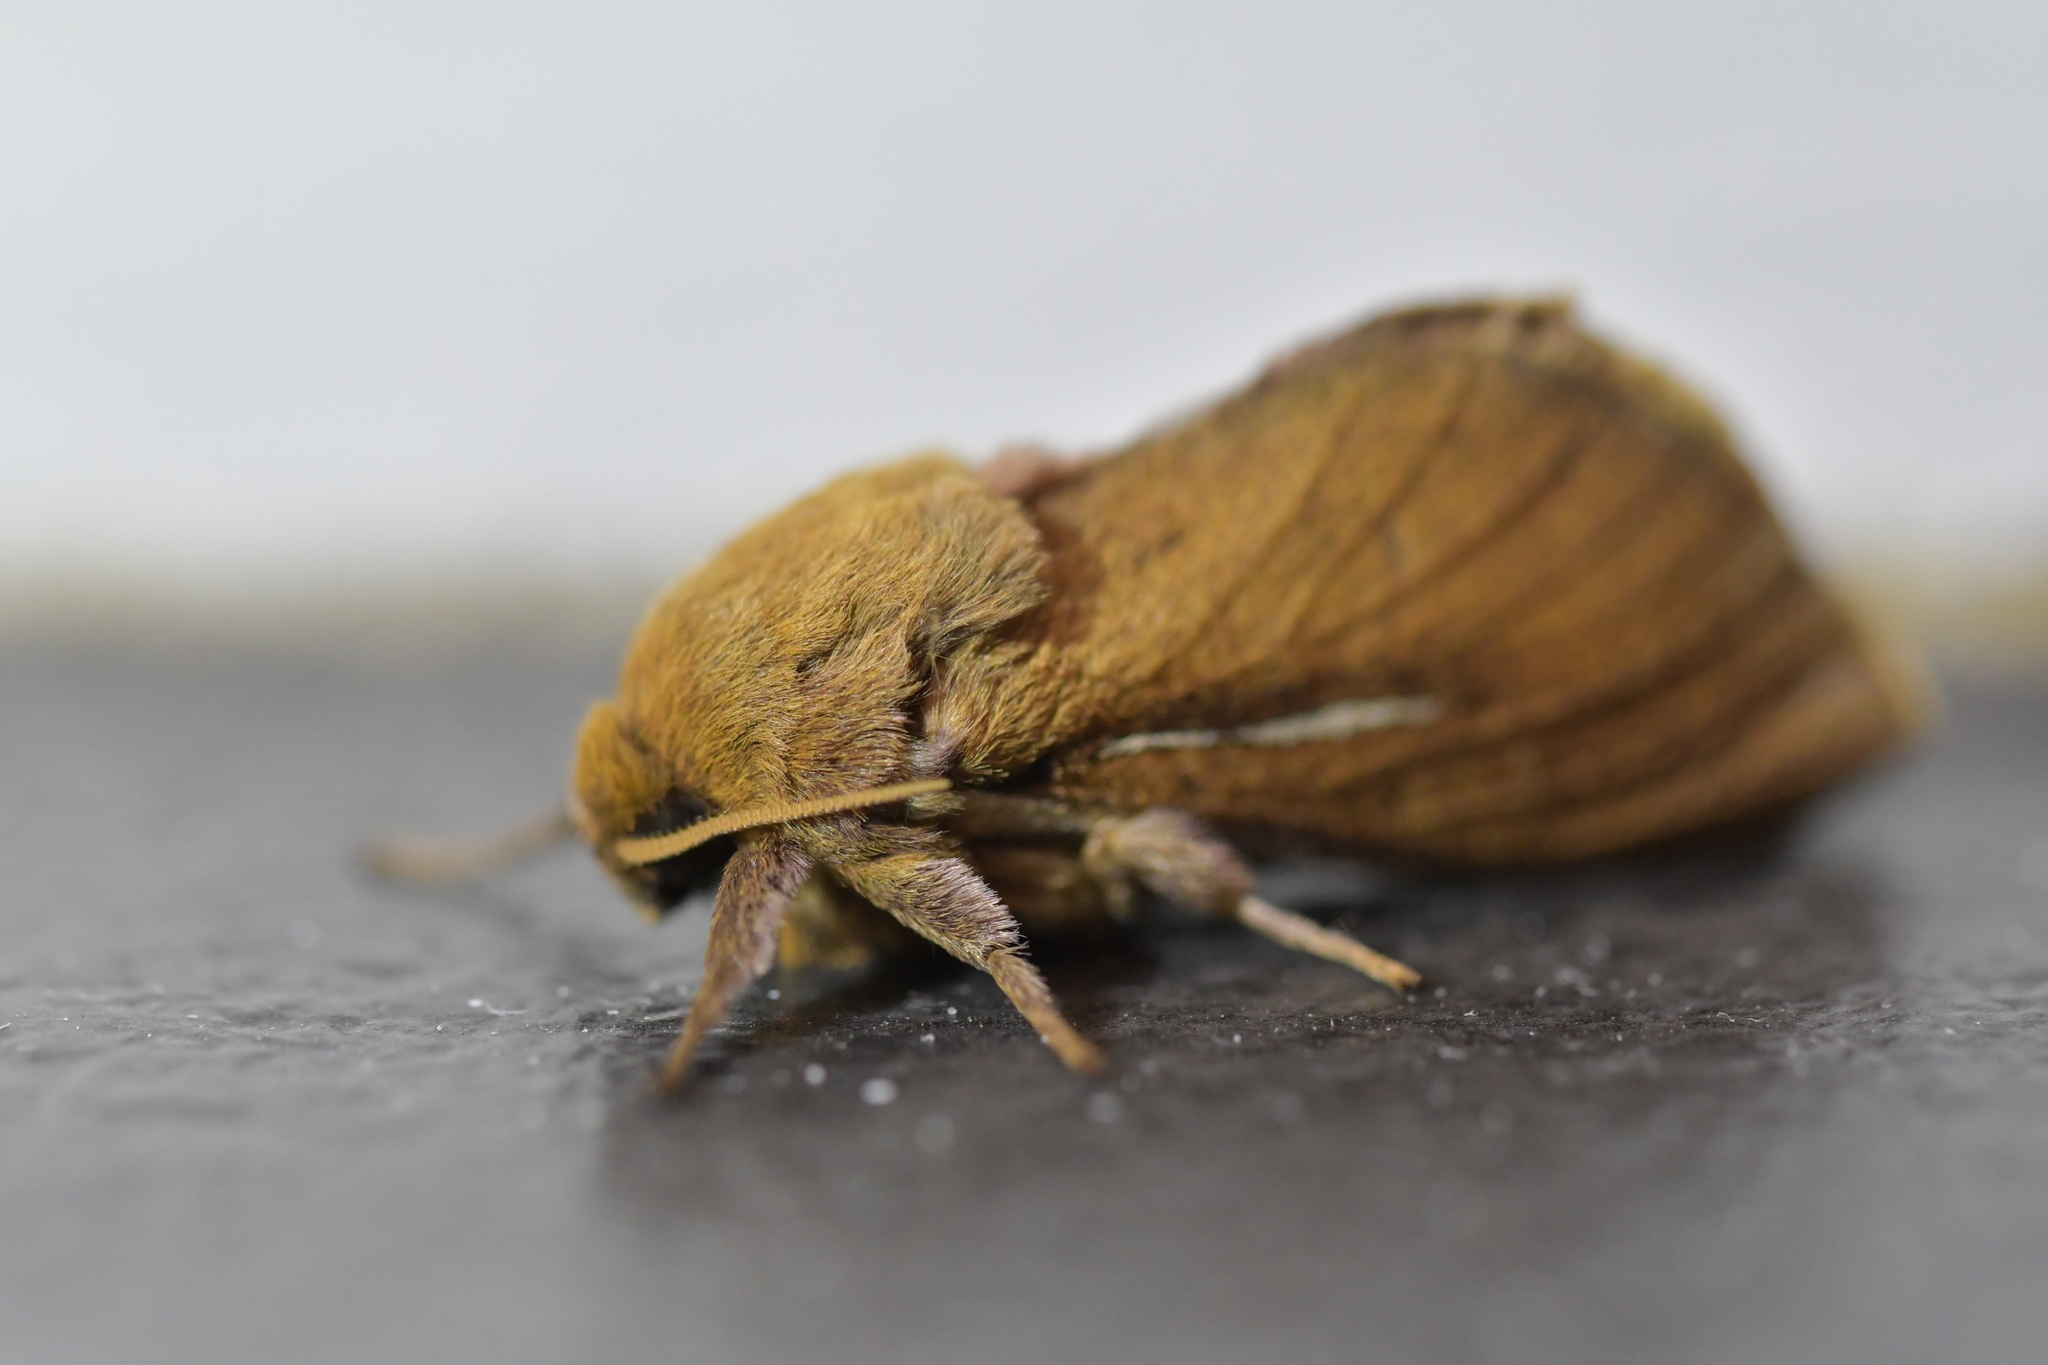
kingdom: Animalia
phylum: Arthropoda
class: Insecta
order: Lepidoptera
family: Hepialidae
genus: Wiseana
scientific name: Wiseana umbraculatus
